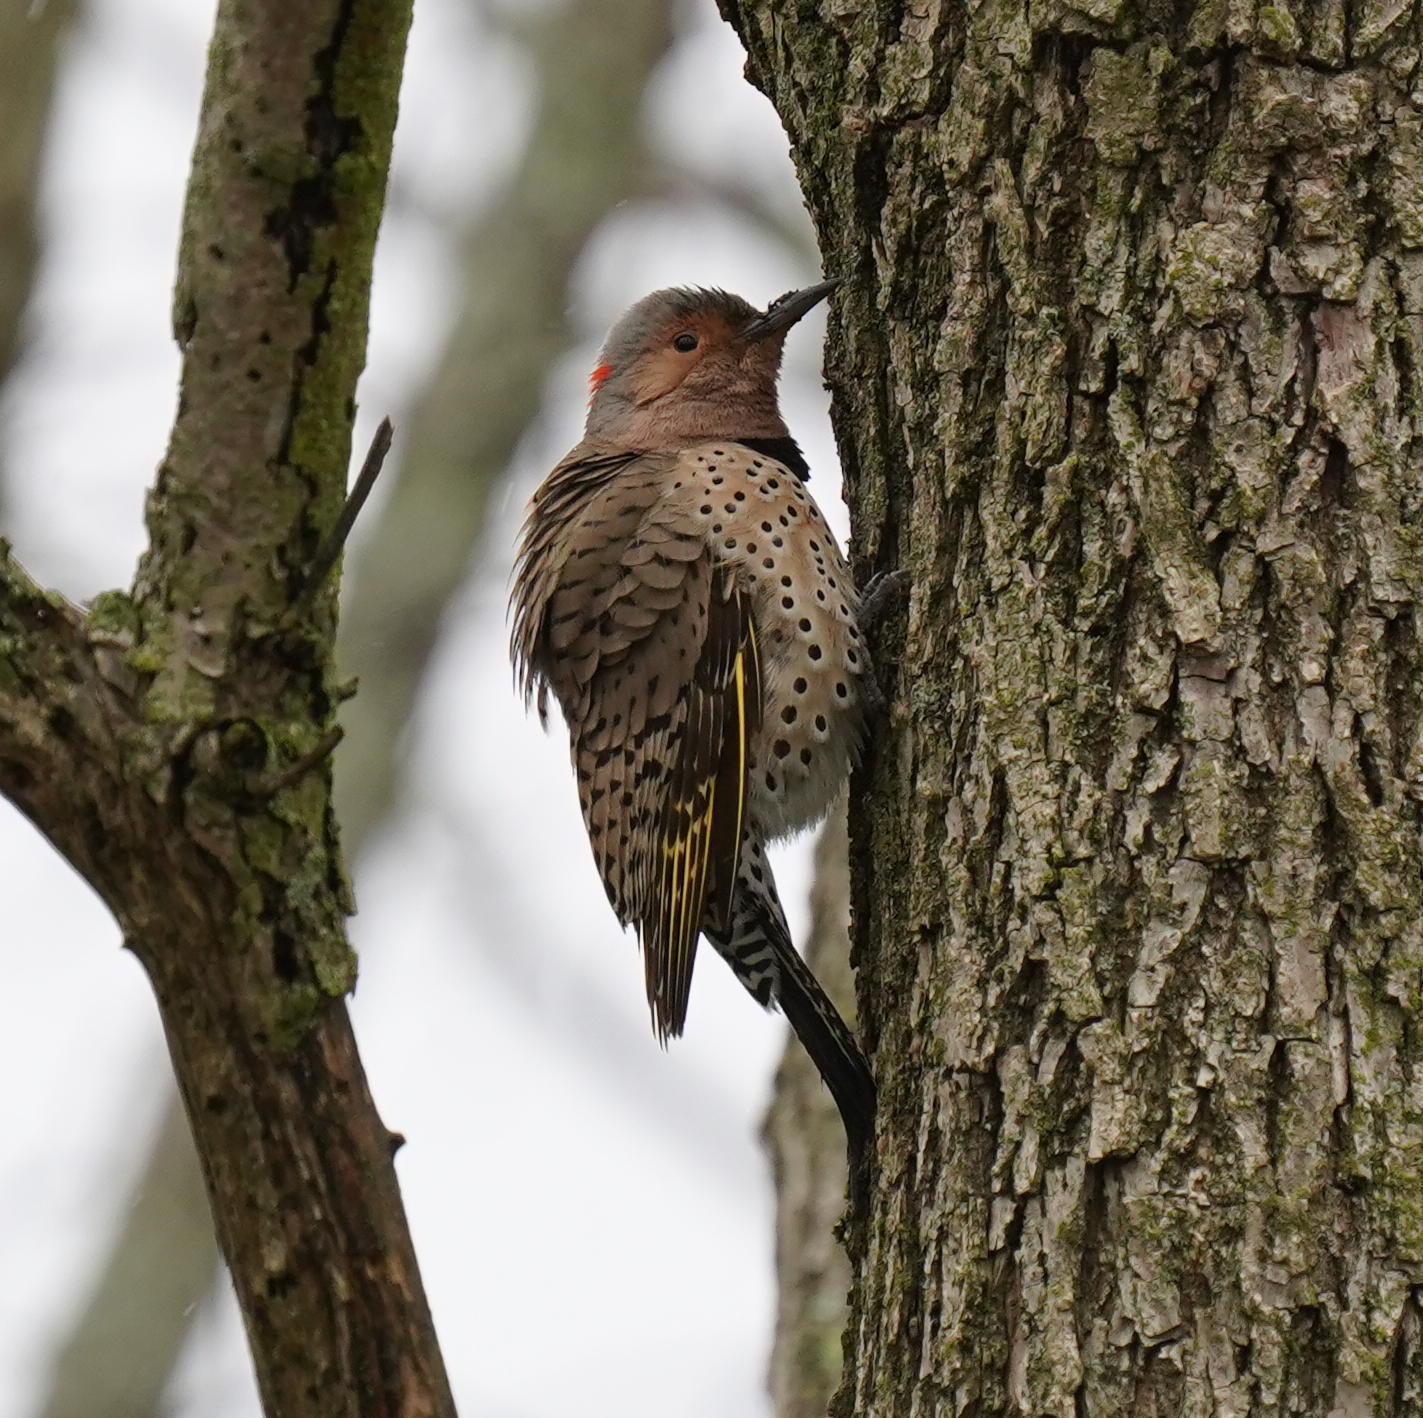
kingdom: Animalia
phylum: Chordata
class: Aves
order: Piciformes
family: Picidae
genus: Colaptes
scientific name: Colaptes auratus
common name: Northern flicker
